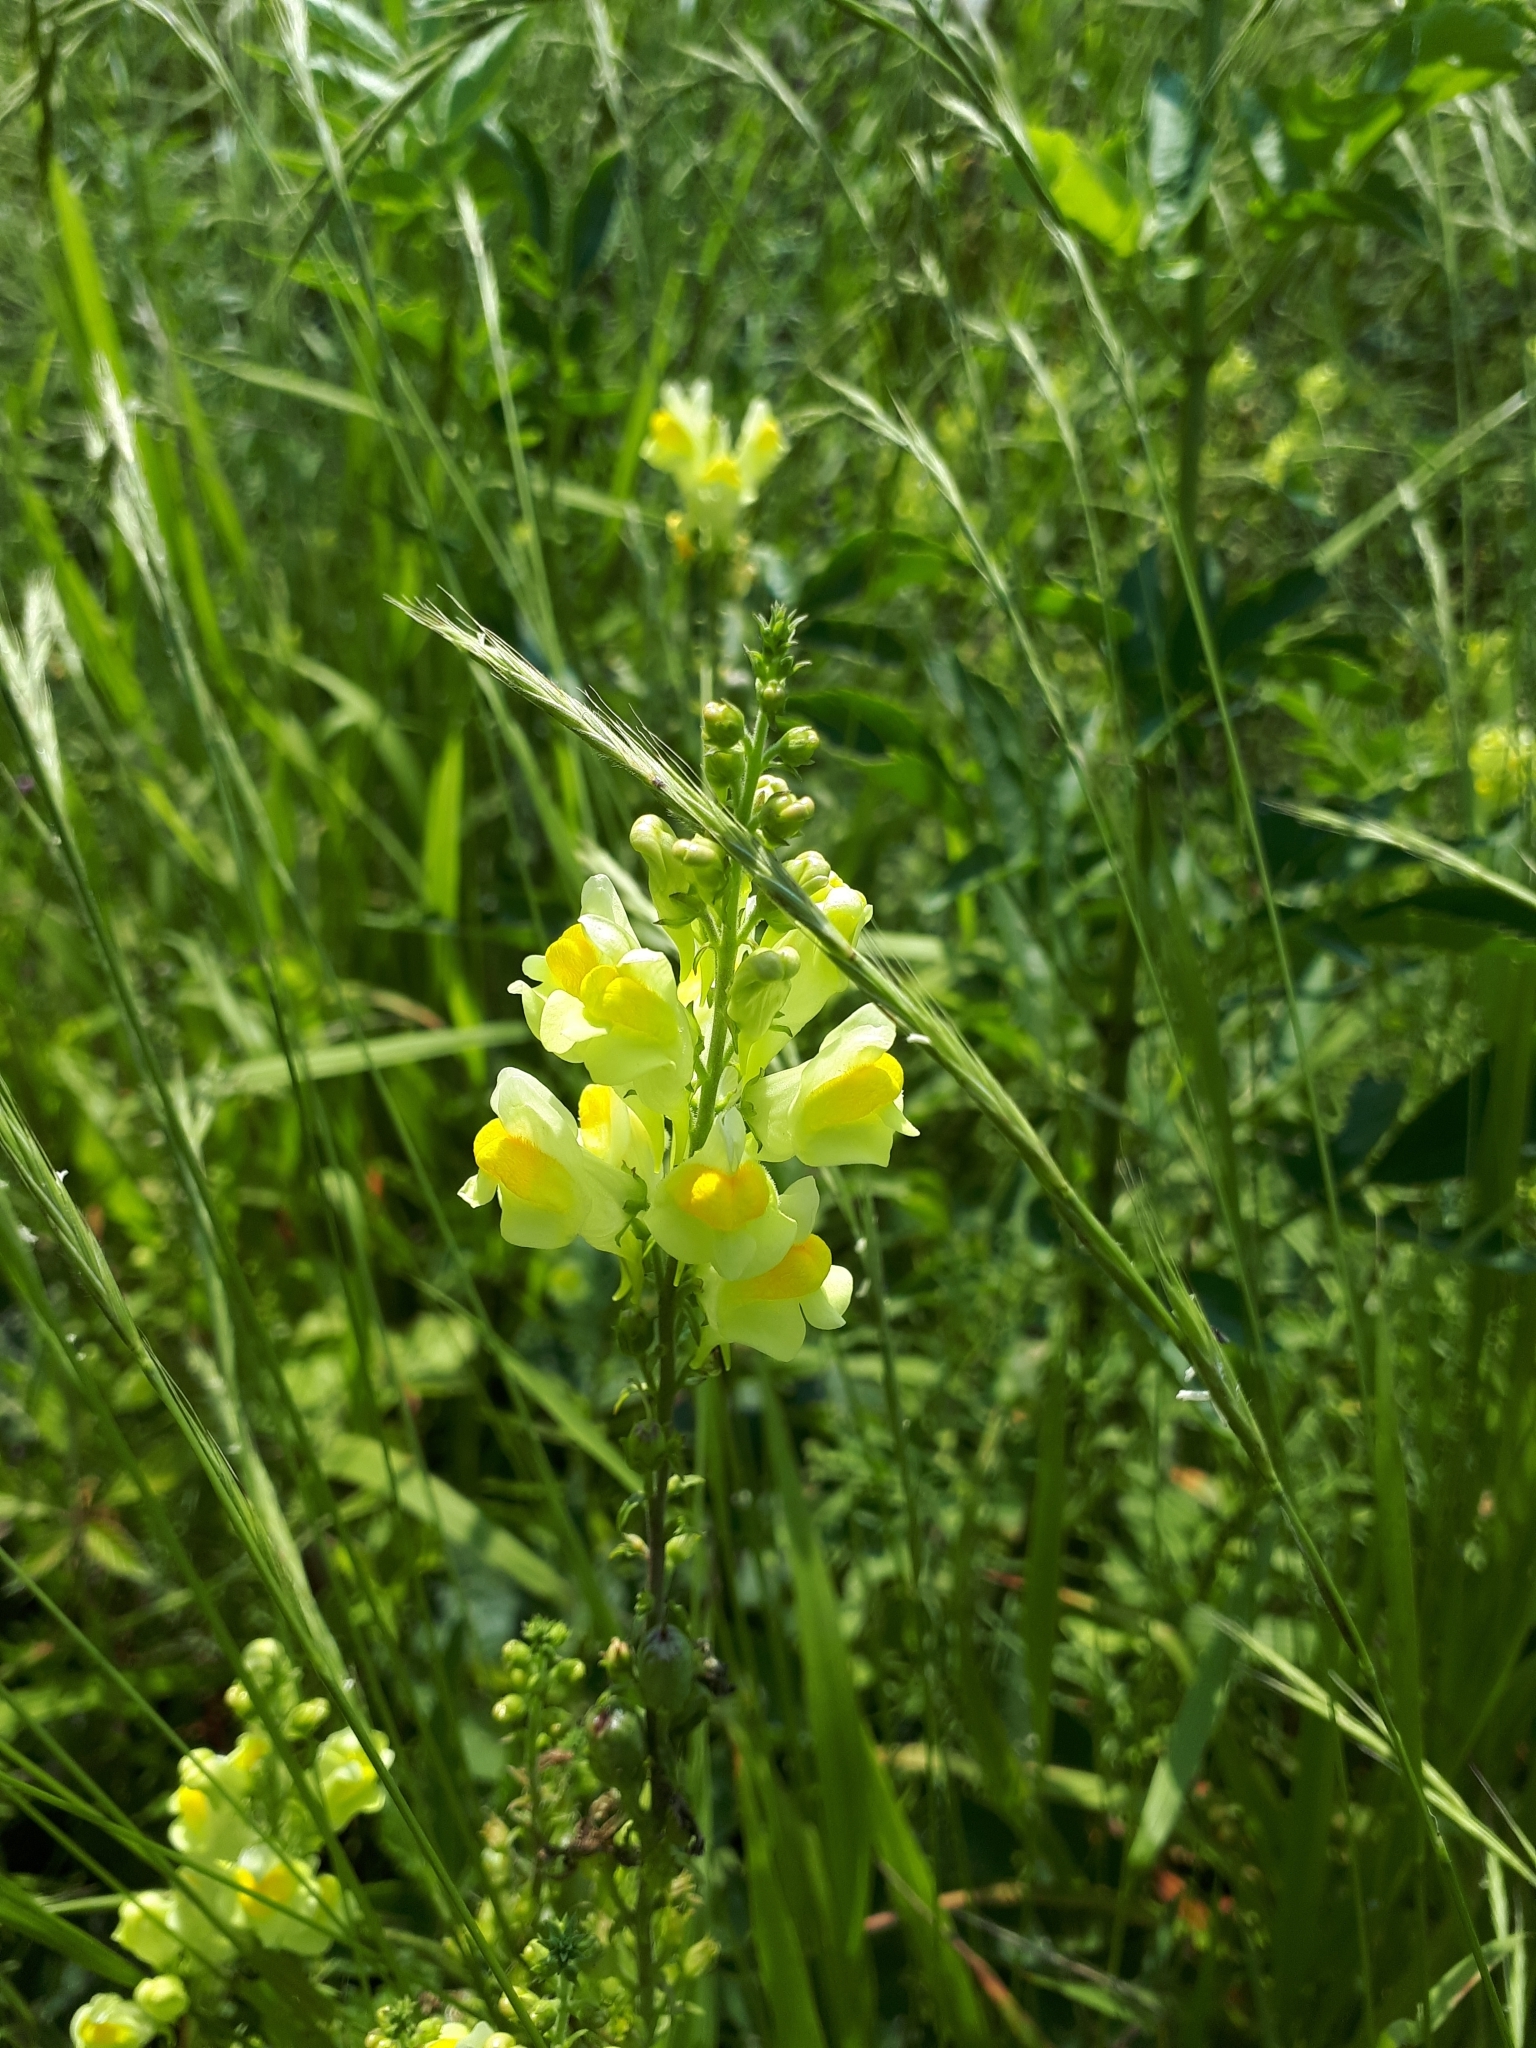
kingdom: Plantae
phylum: Tracheophyta
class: Magnoliopsida
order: Lamiales
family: Plantaginaceae
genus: Linaria
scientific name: Linaria vulgaris
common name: Butter and eggs
